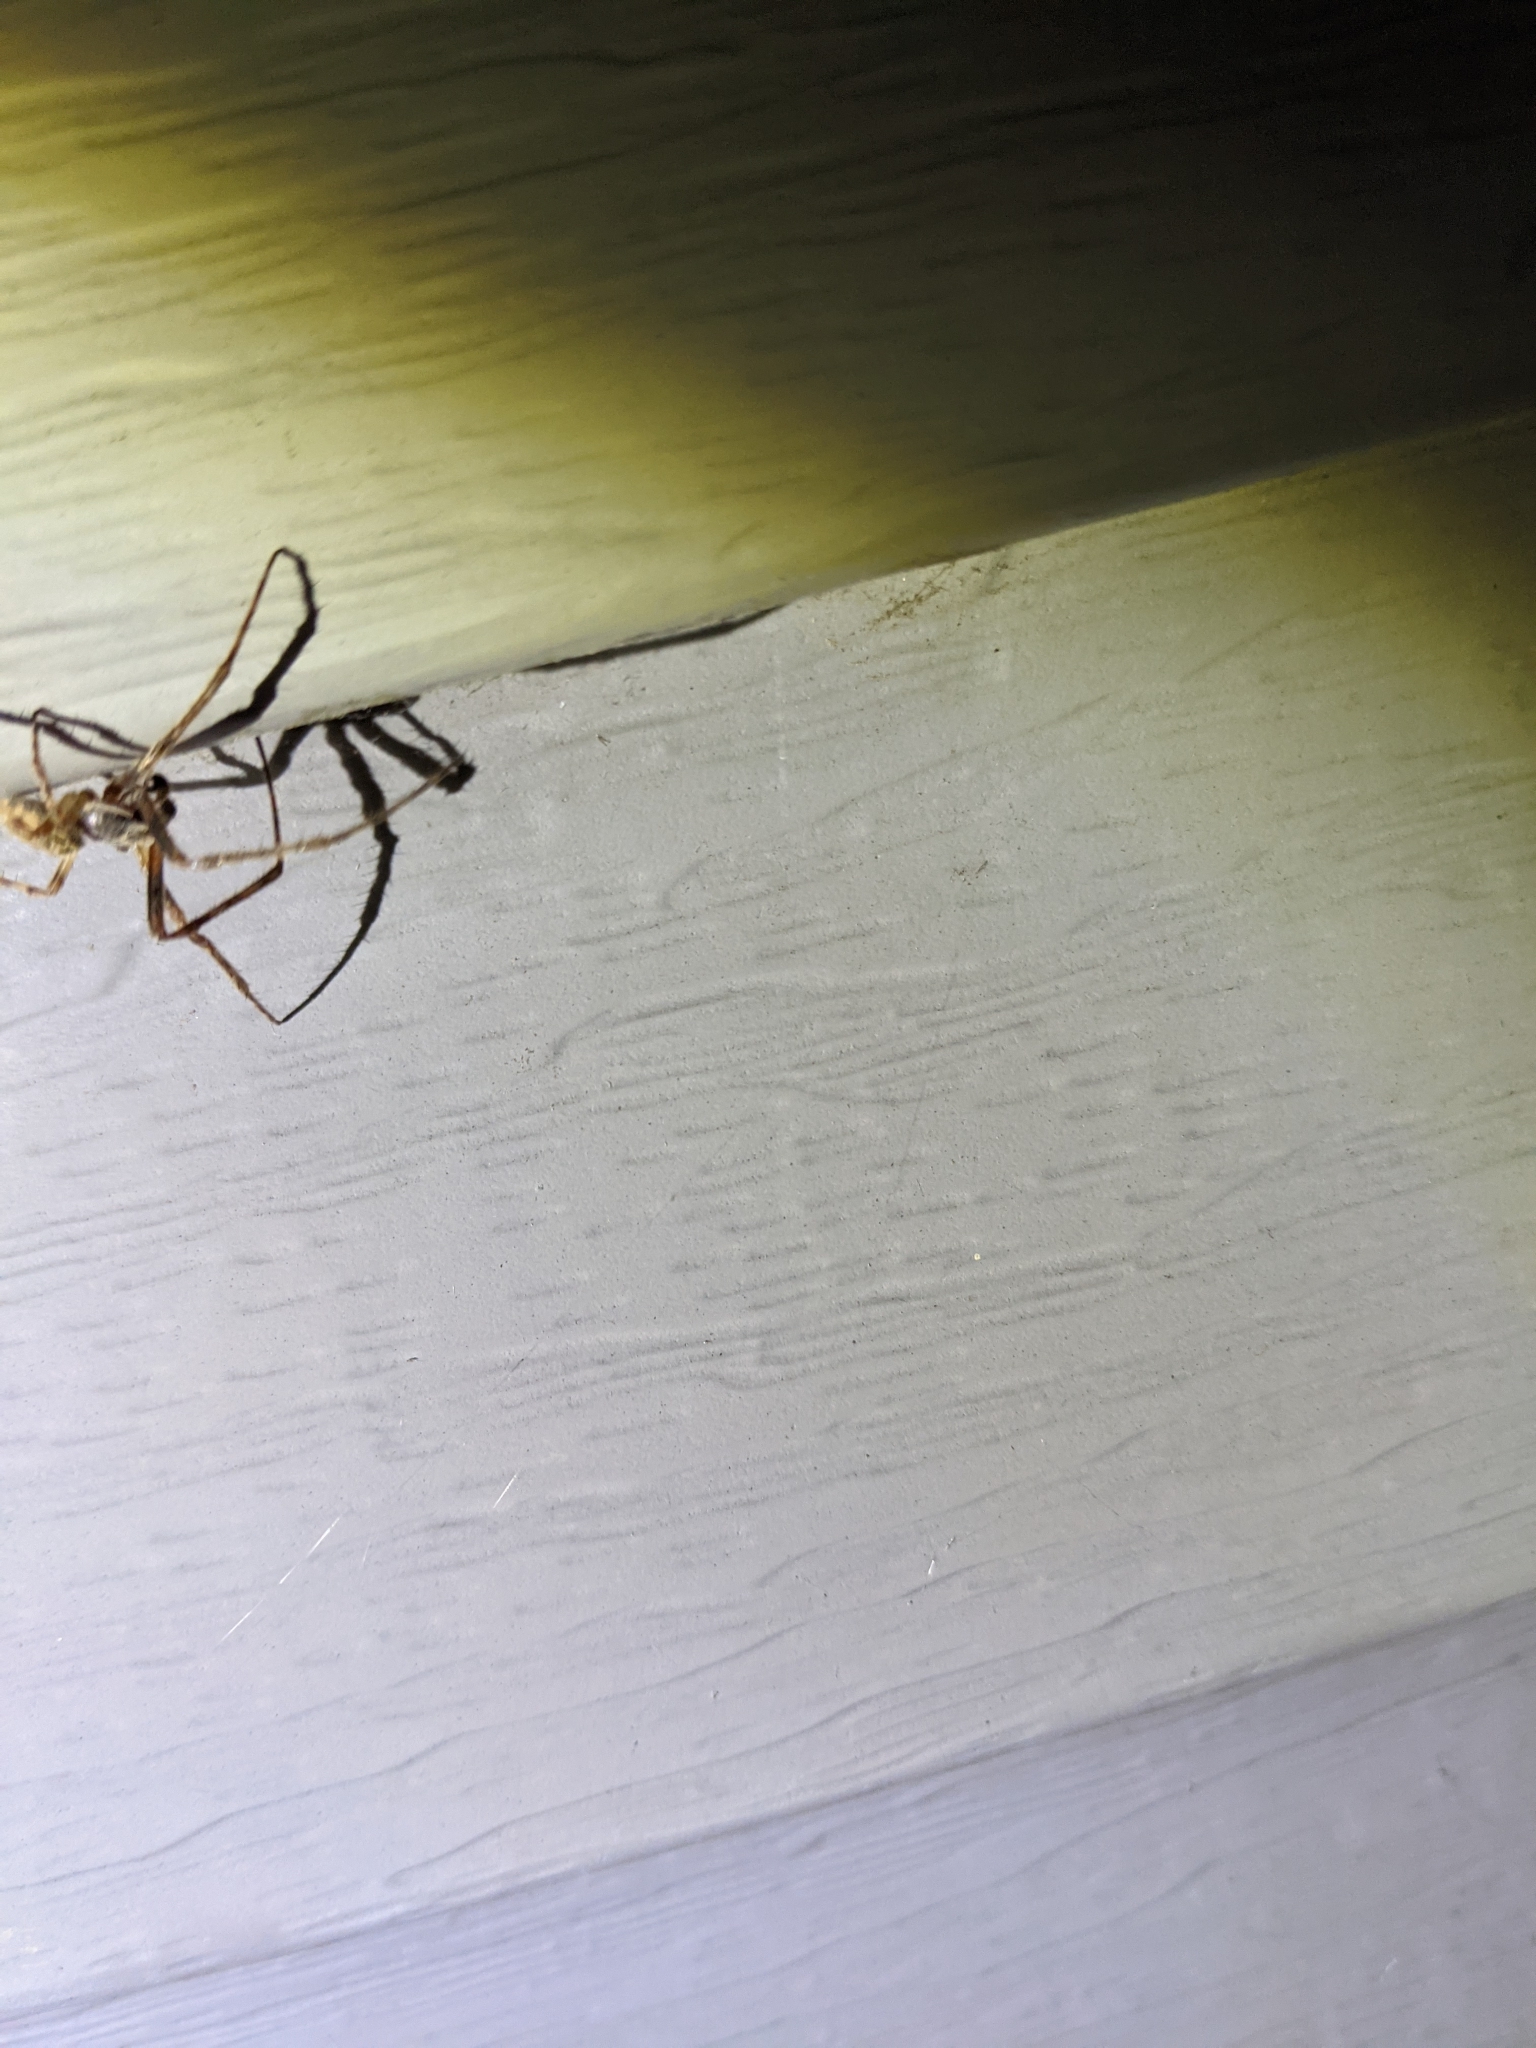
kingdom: Animalia
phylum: Arthropoda
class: Arachnida
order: Araneae
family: Araneidae
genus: Larinioides
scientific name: Larinioides sclopetarius
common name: Bridge orbweaver
